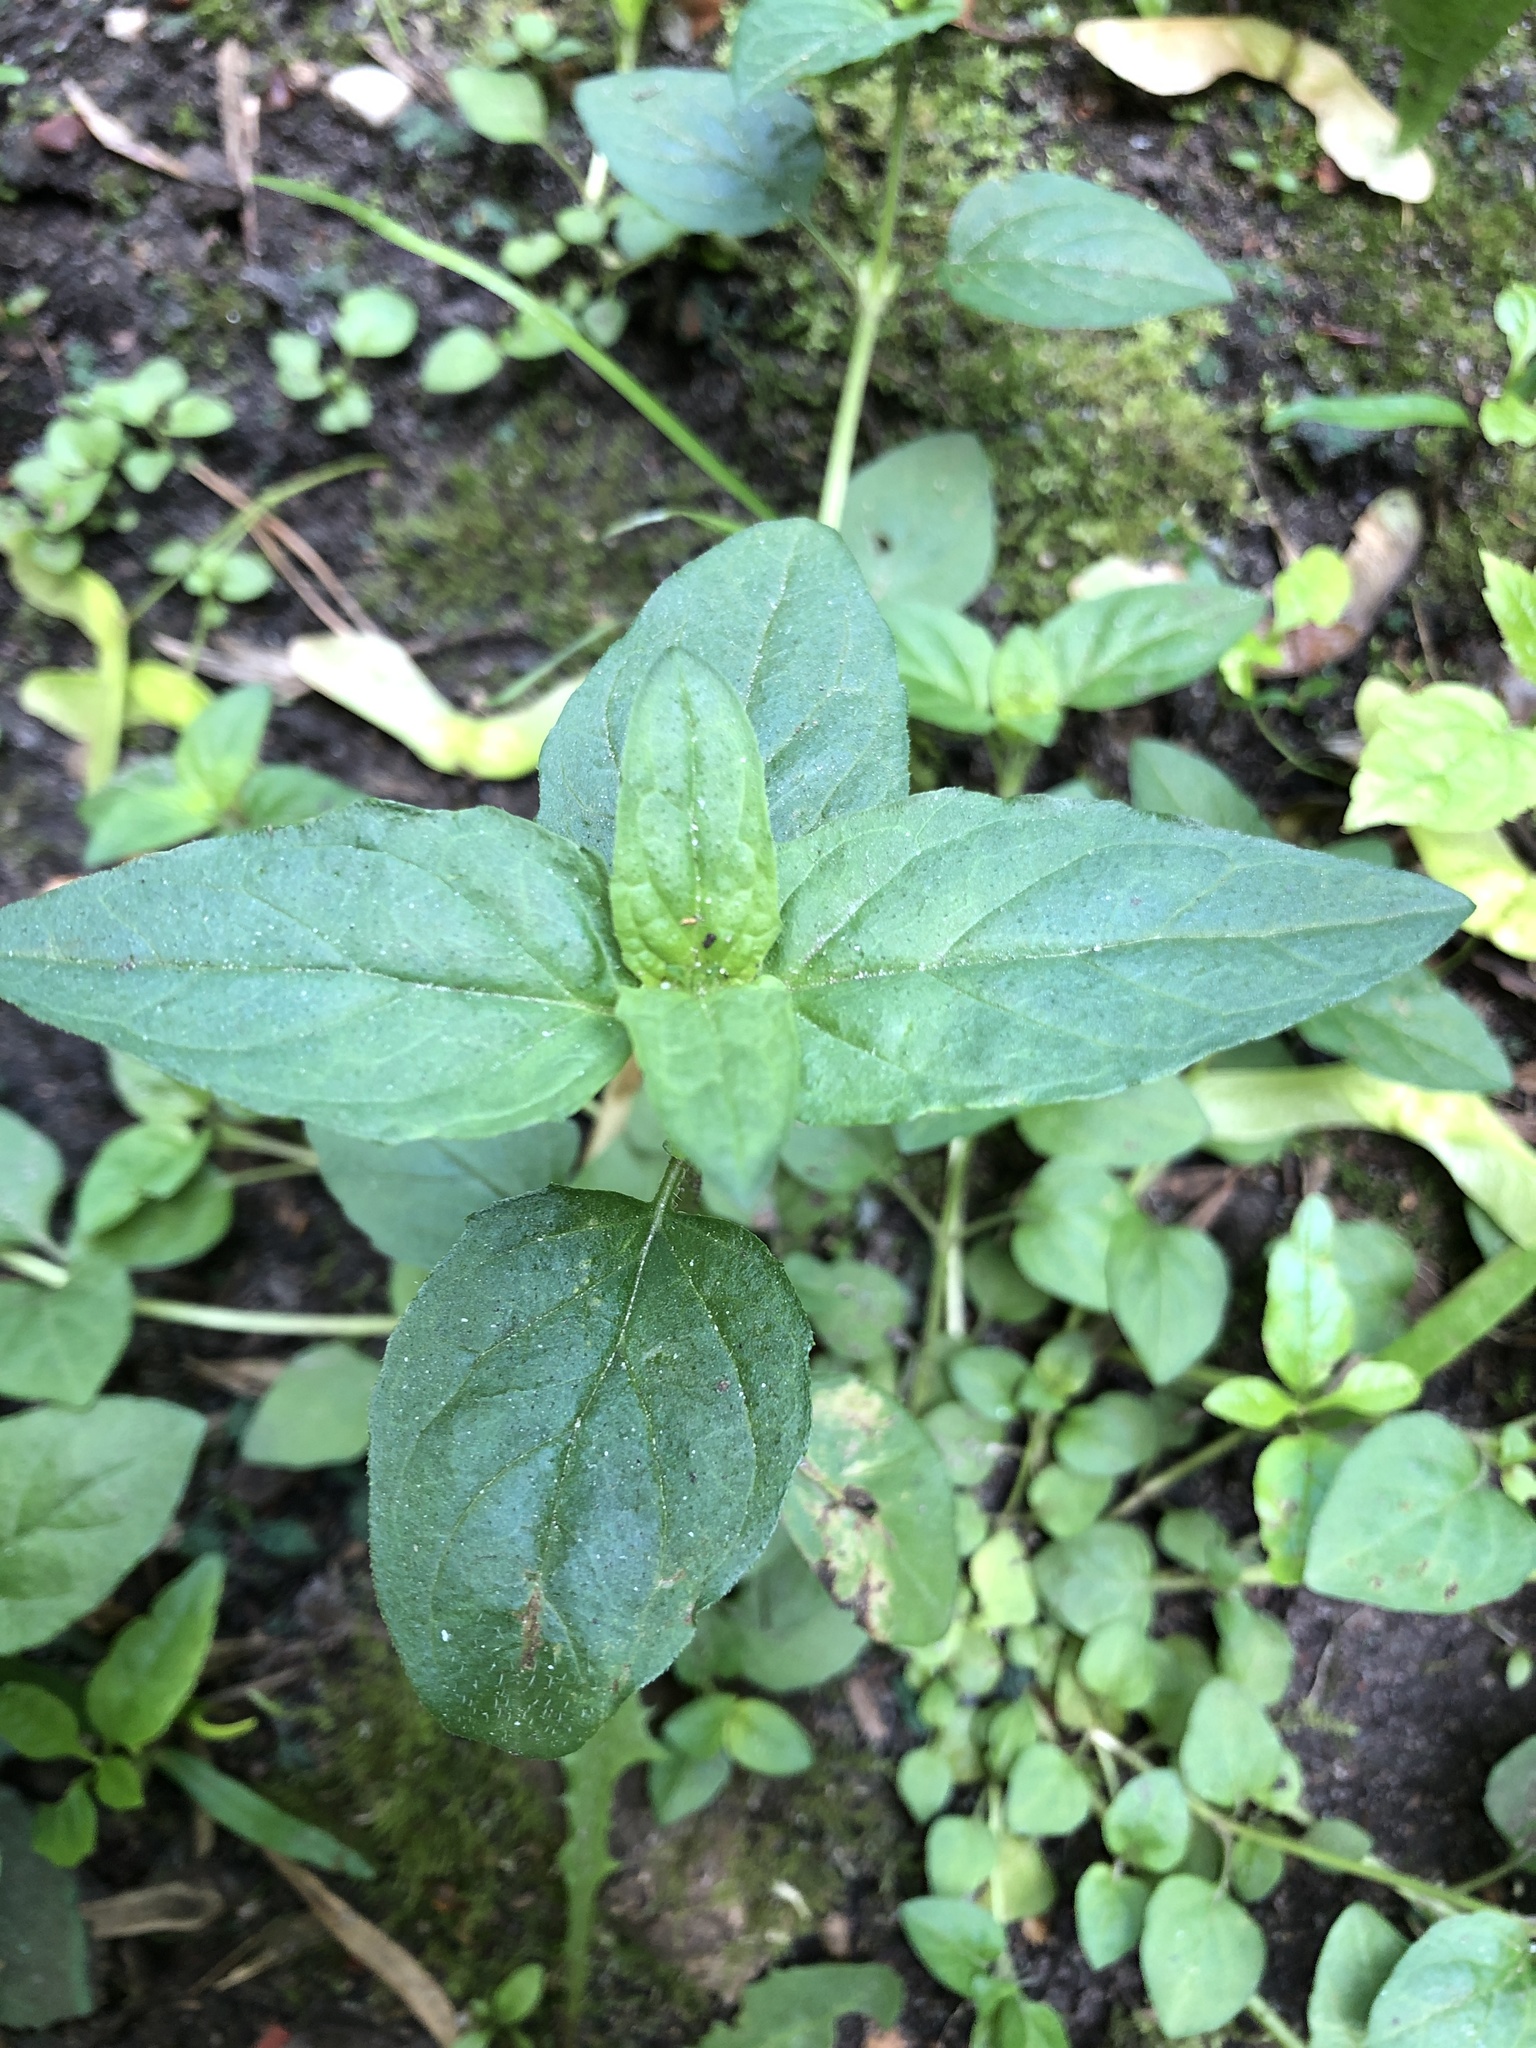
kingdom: Plantae
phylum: Tracheophyta
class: Magnoliopsida
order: Lamiales
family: Lamiaceae
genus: Prunella
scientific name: Prunella vulgaris
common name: Heal-all
